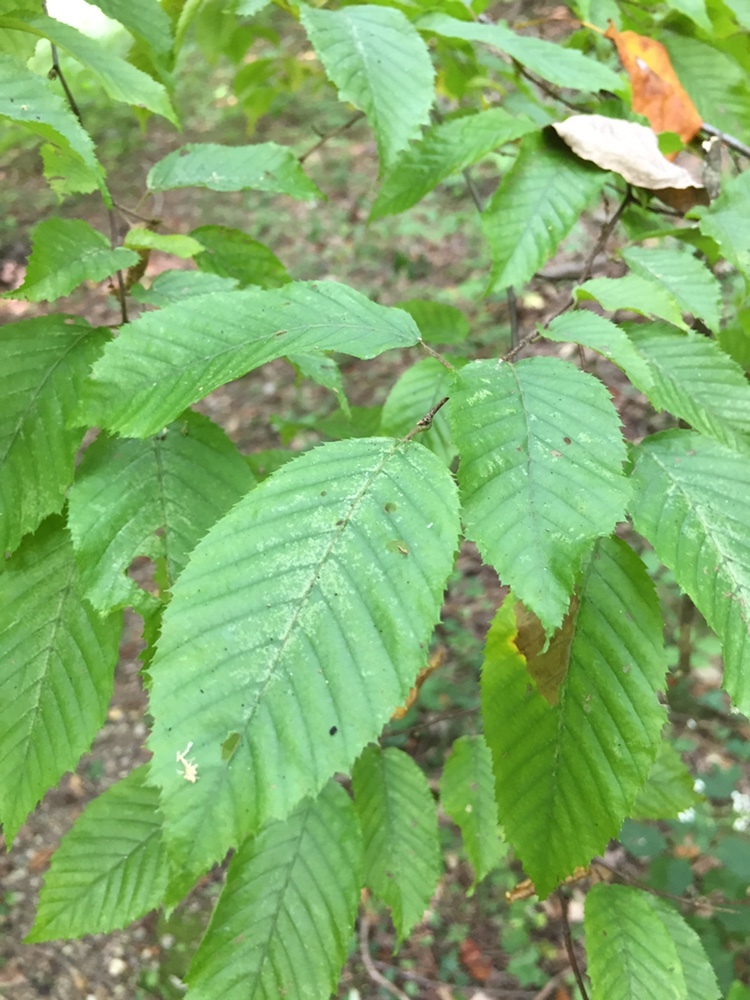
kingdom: Plantae
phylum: Tracheophyta
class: Magnoliopsida
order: Fagales
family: Betulaceae
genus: Carpinus
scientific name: Carpinus caroliniana
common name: American hornbeam
